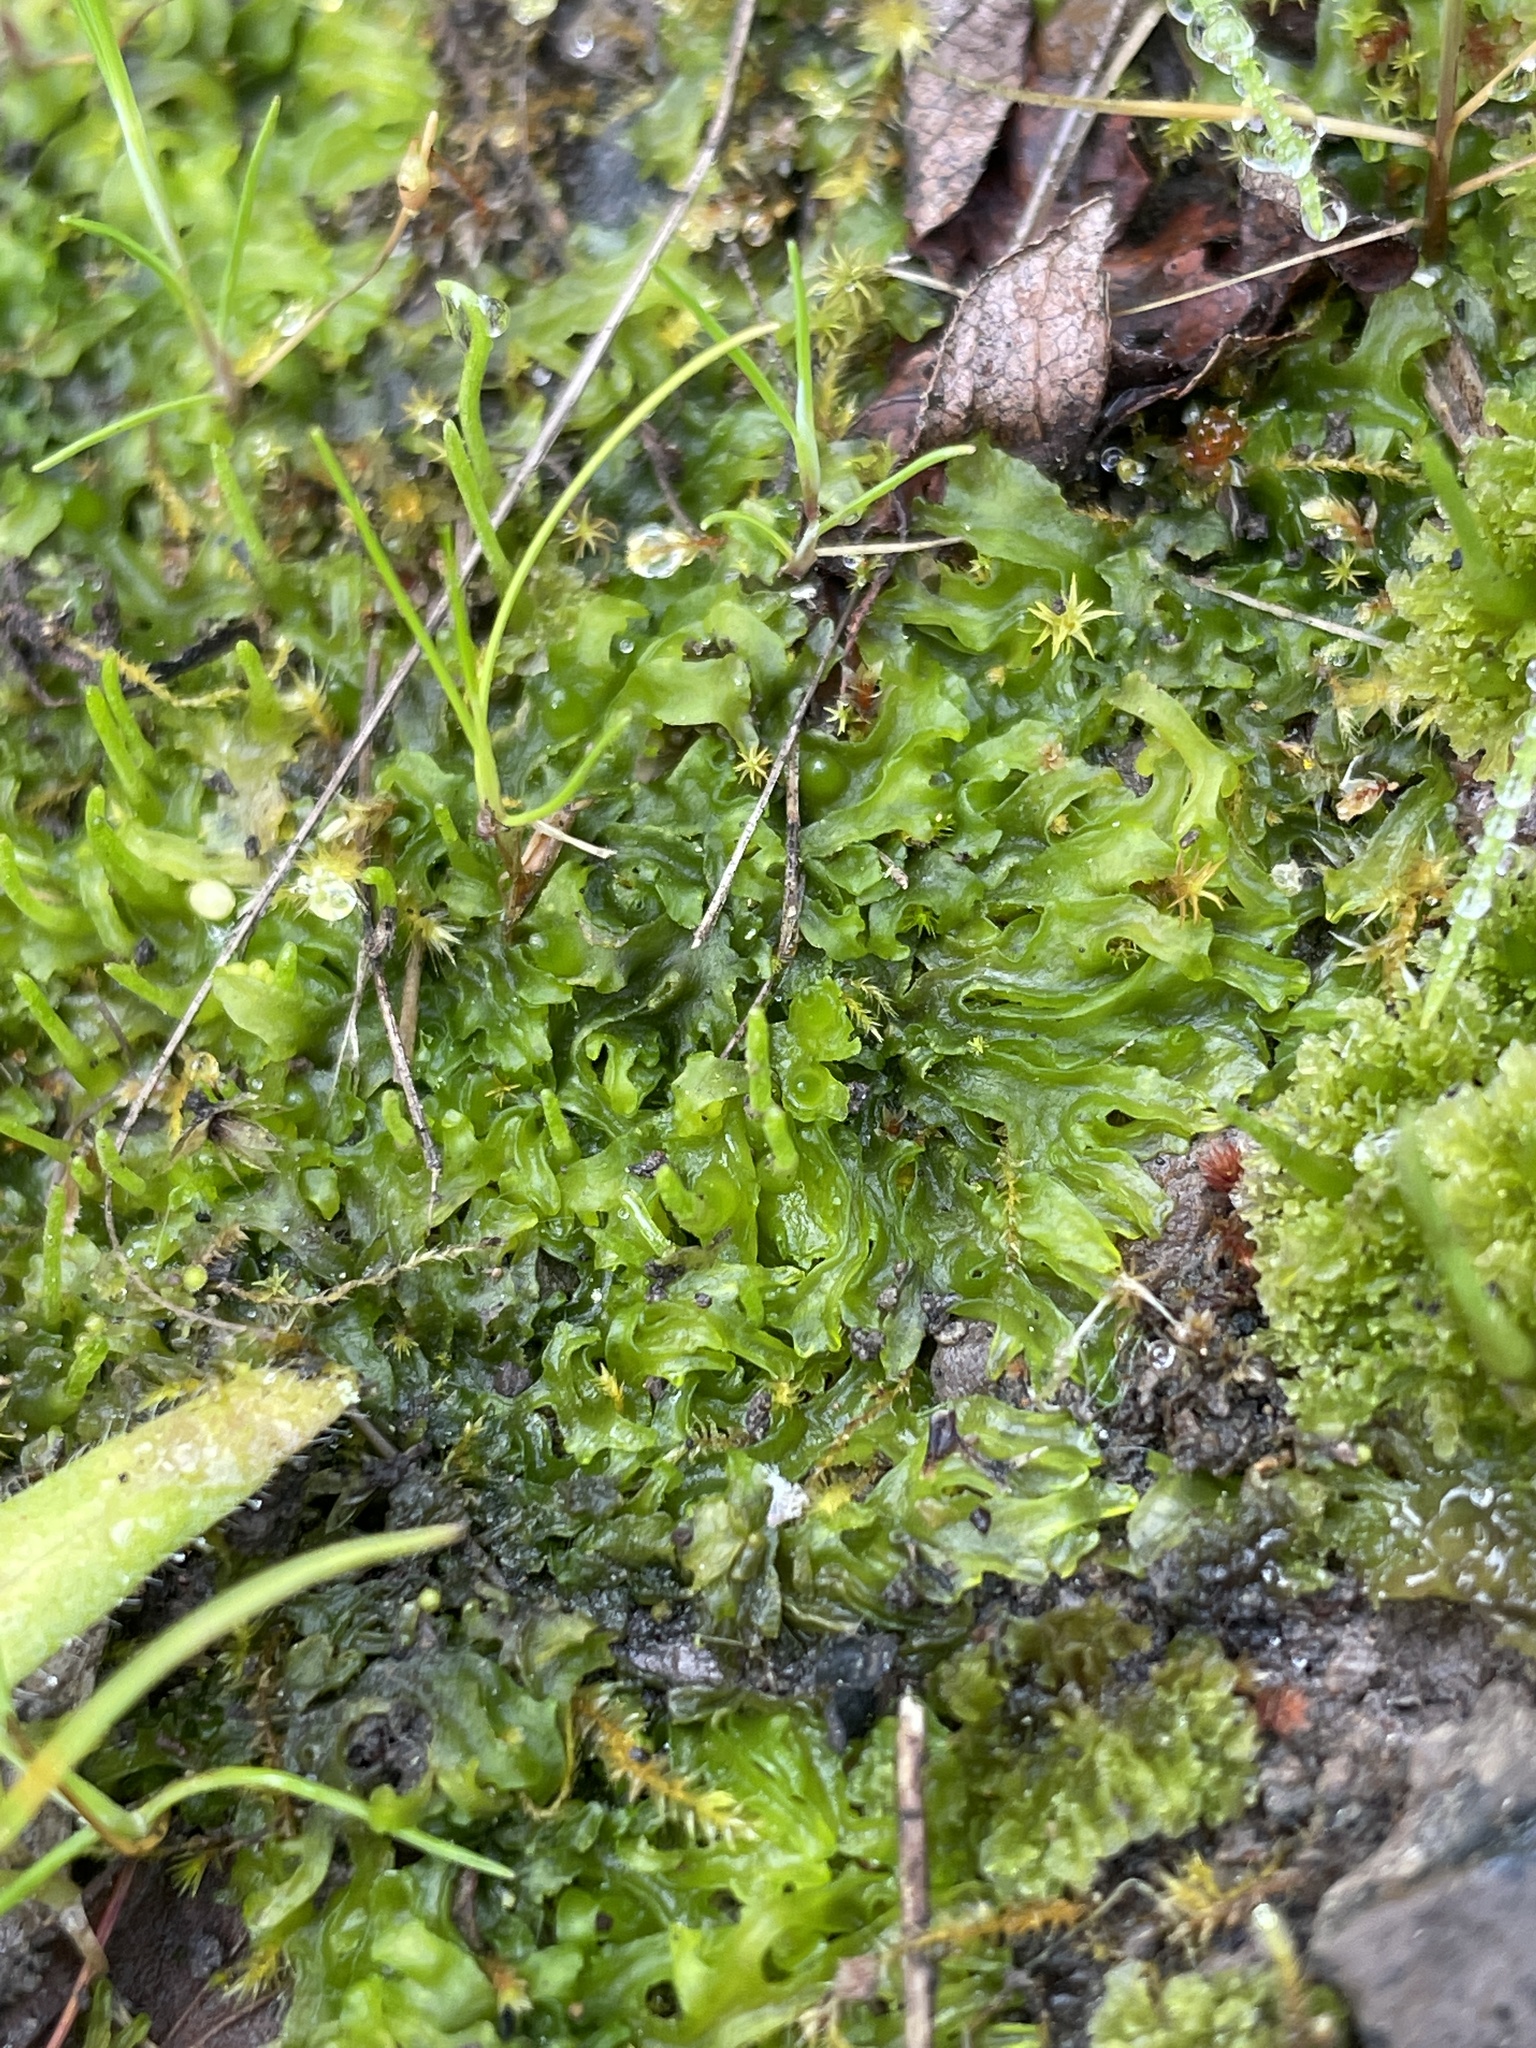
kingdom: Plantae
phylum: Anthocerotophyta
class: Anthocerotopsida
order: Phymatocerotales
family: Phymatocerotaceae
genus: Phymatoceros
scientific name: Phymatoceros bulbiculosus
